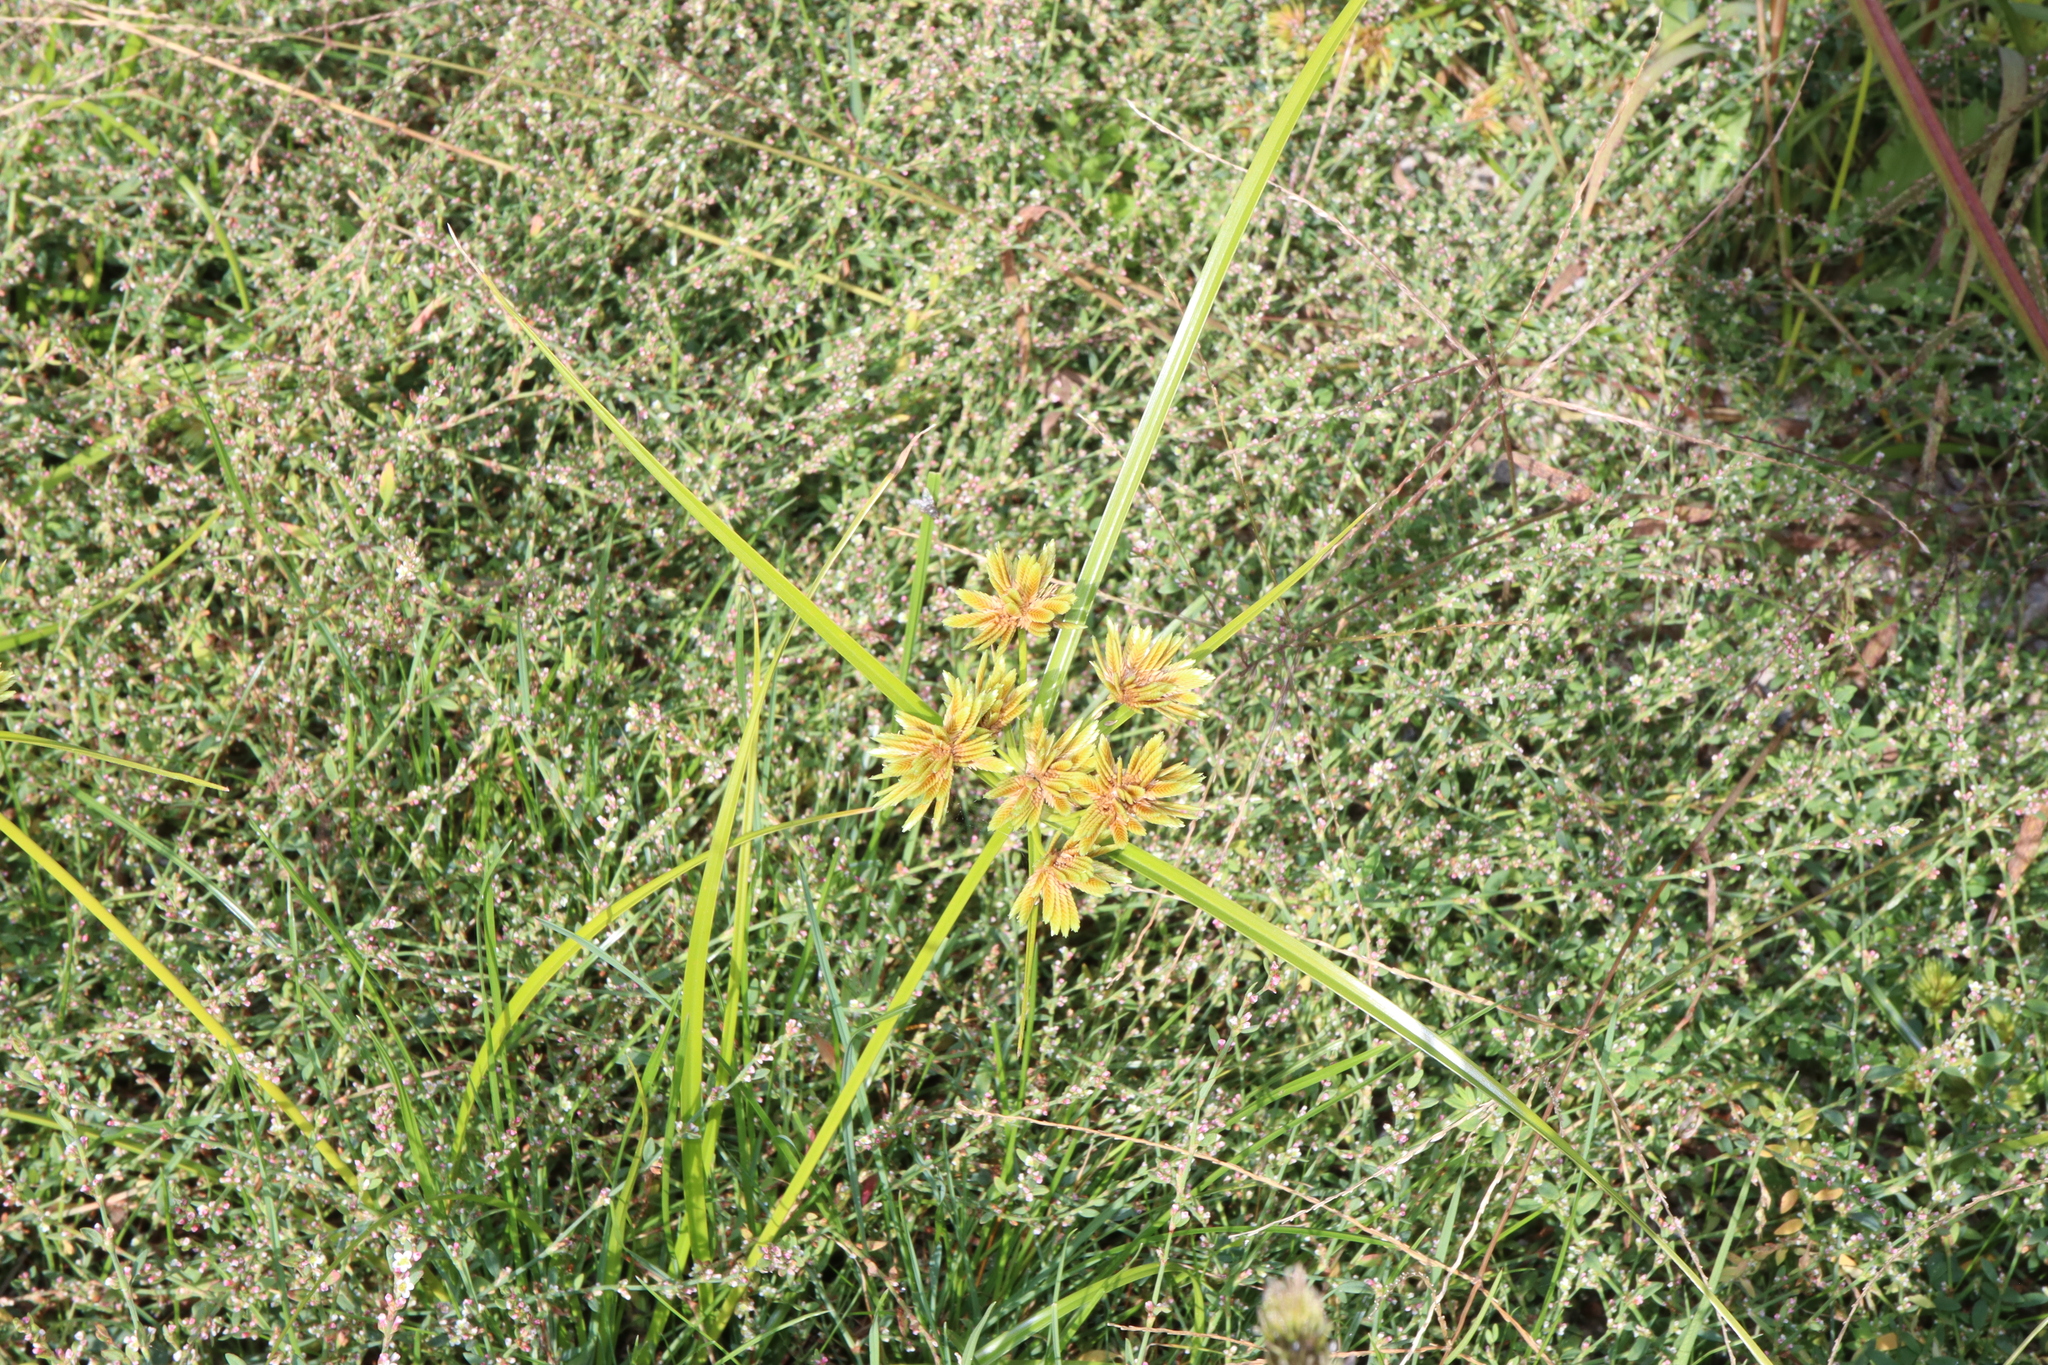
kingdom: Plantae
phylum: Tracheophyta
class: Liliopsida
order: Poales
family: Cyperaceae
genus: Cyperus
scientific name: Cyperus eragrostis
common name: Tall flatsedge
